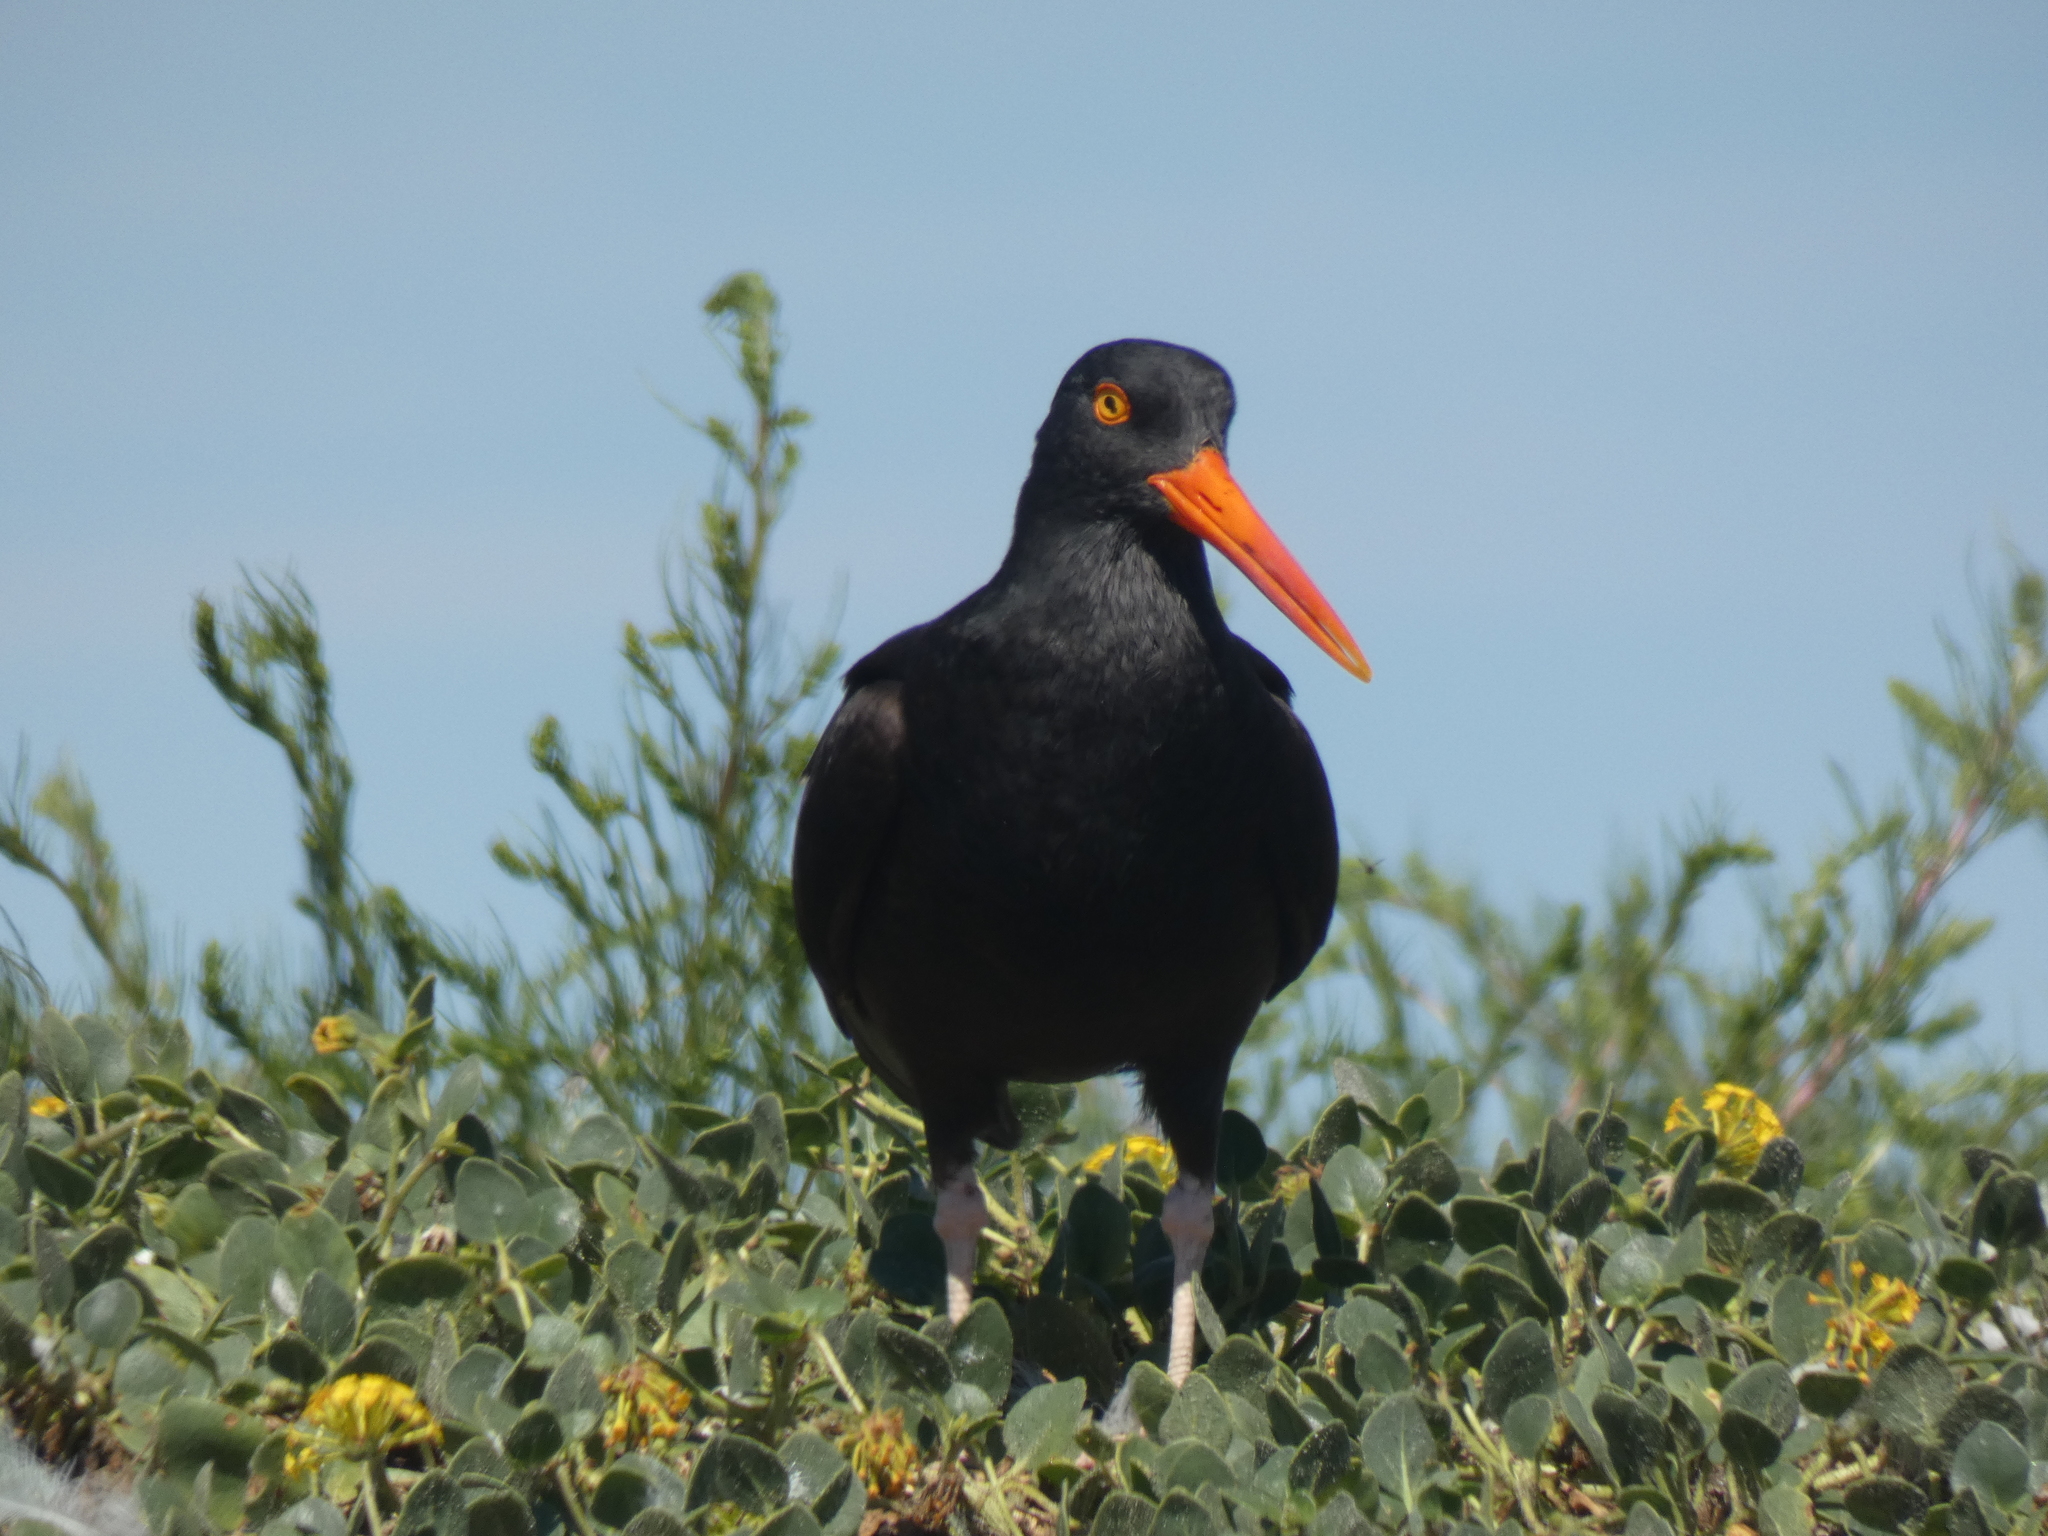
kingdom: Animalia
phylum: Chordata
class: Aves
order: Charadriiformes
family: Haematopodidae
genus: Haematopus
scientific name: Haematopus bachmani
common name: Black oystercatcher
